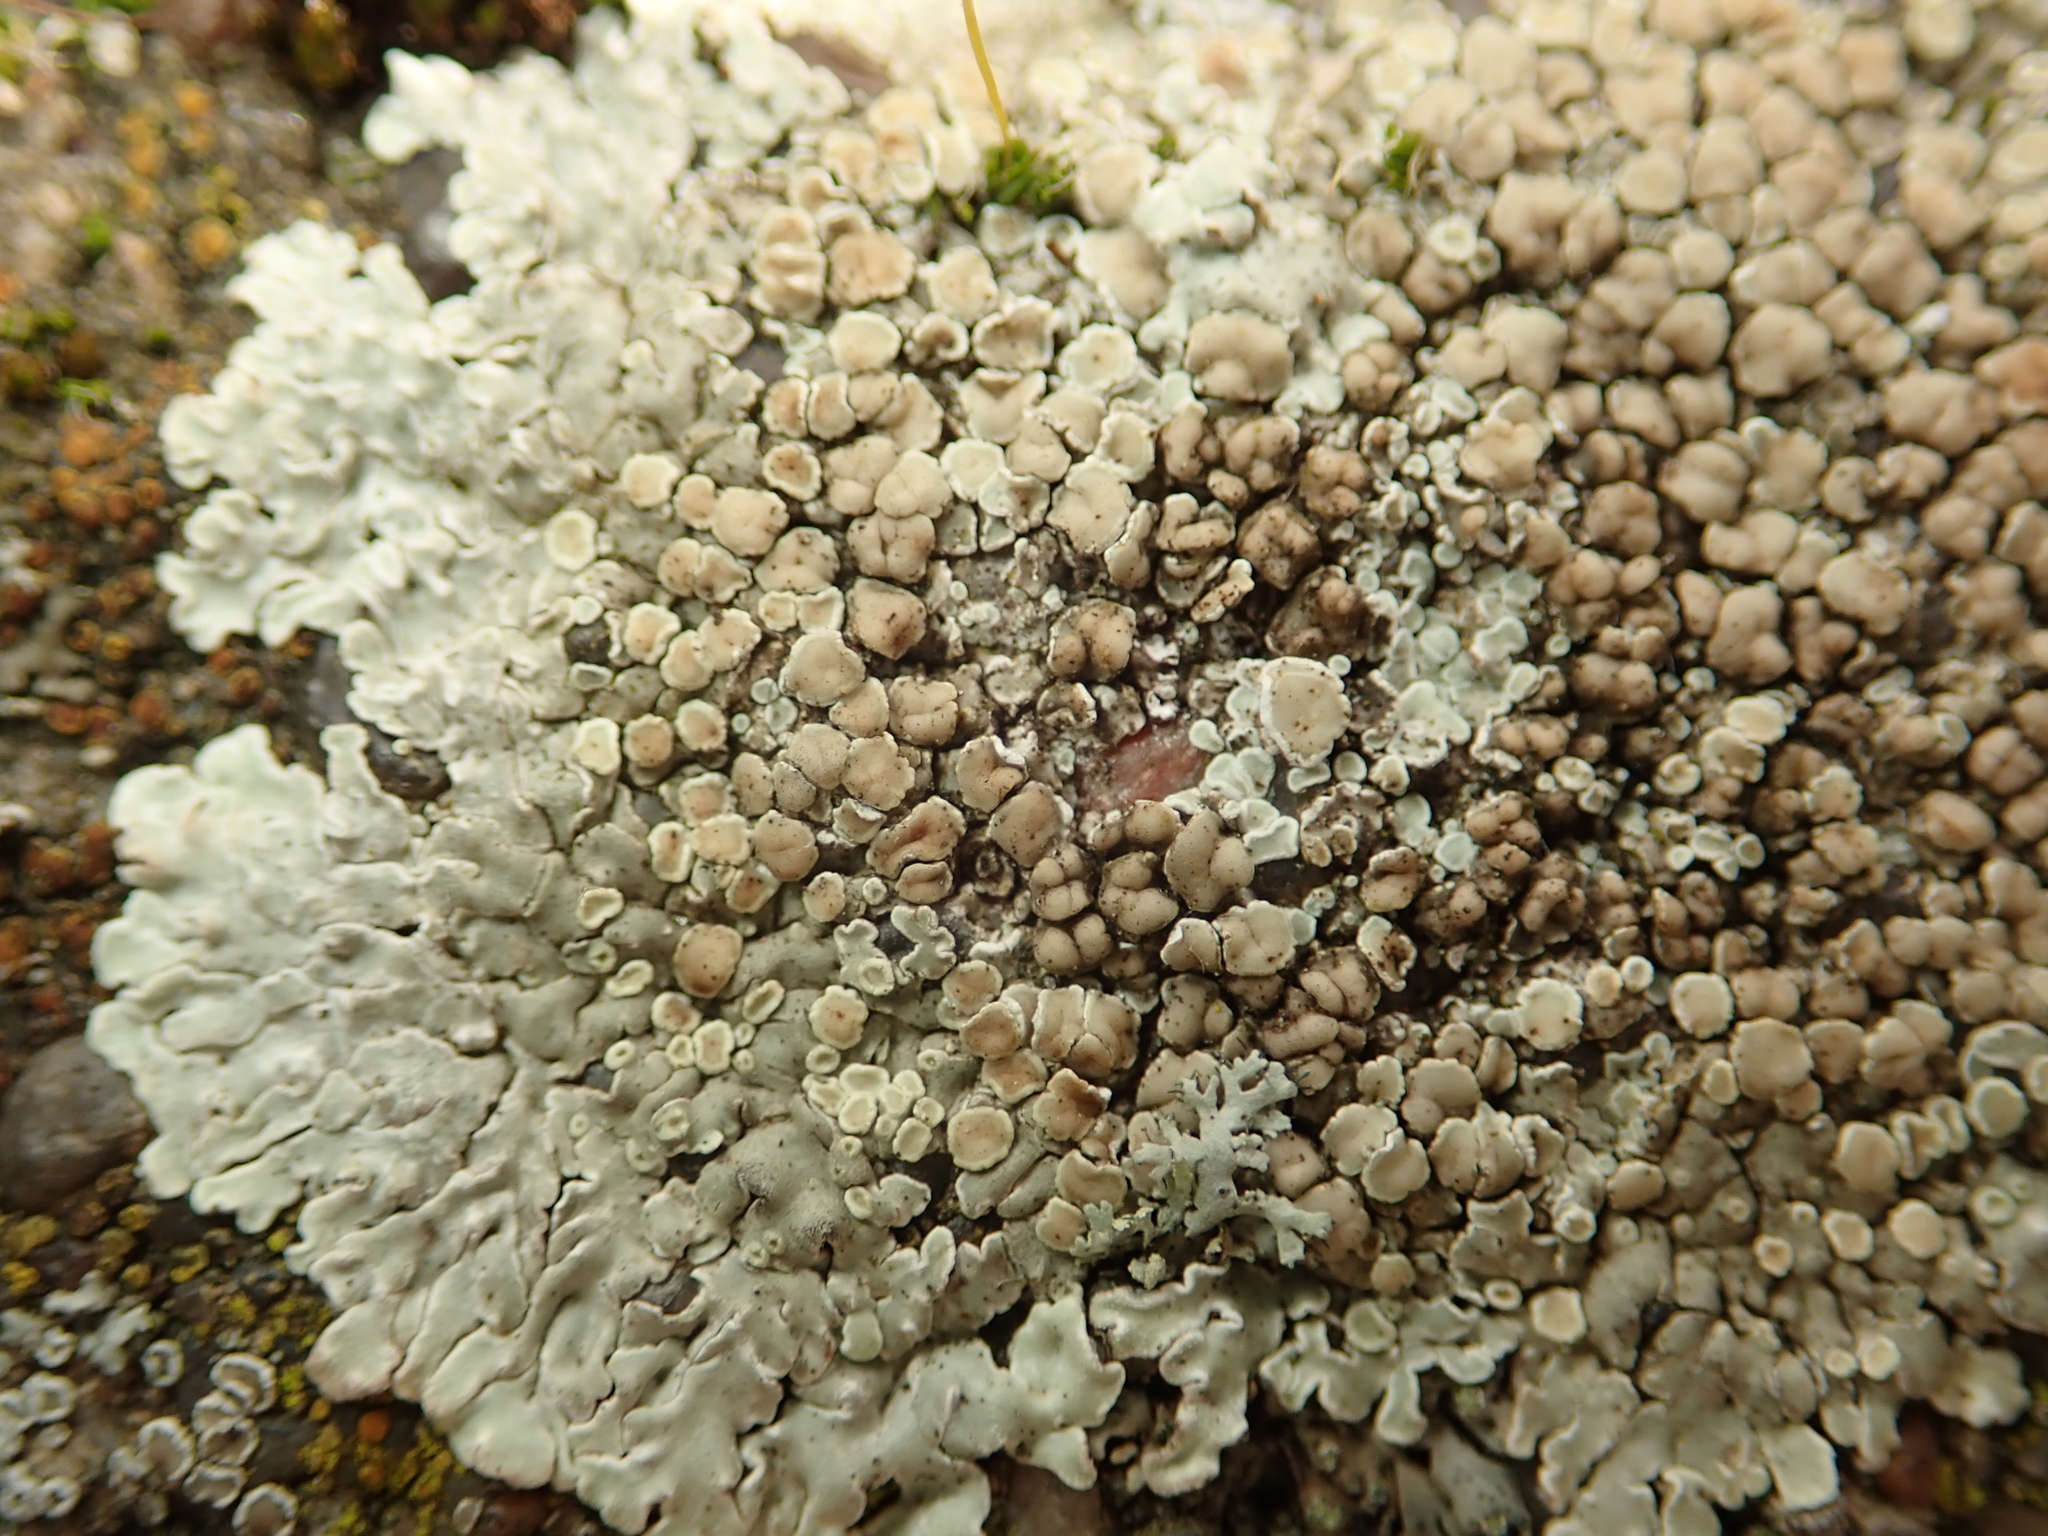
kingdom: Fungi
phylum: Ascomycota
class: Lecanoromycetes
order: Lecanorales
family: Lecanoraceae
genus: Protoparmeliopsis
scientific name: Protoparmeliopsis muralis
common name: Stonewall rim lichen
